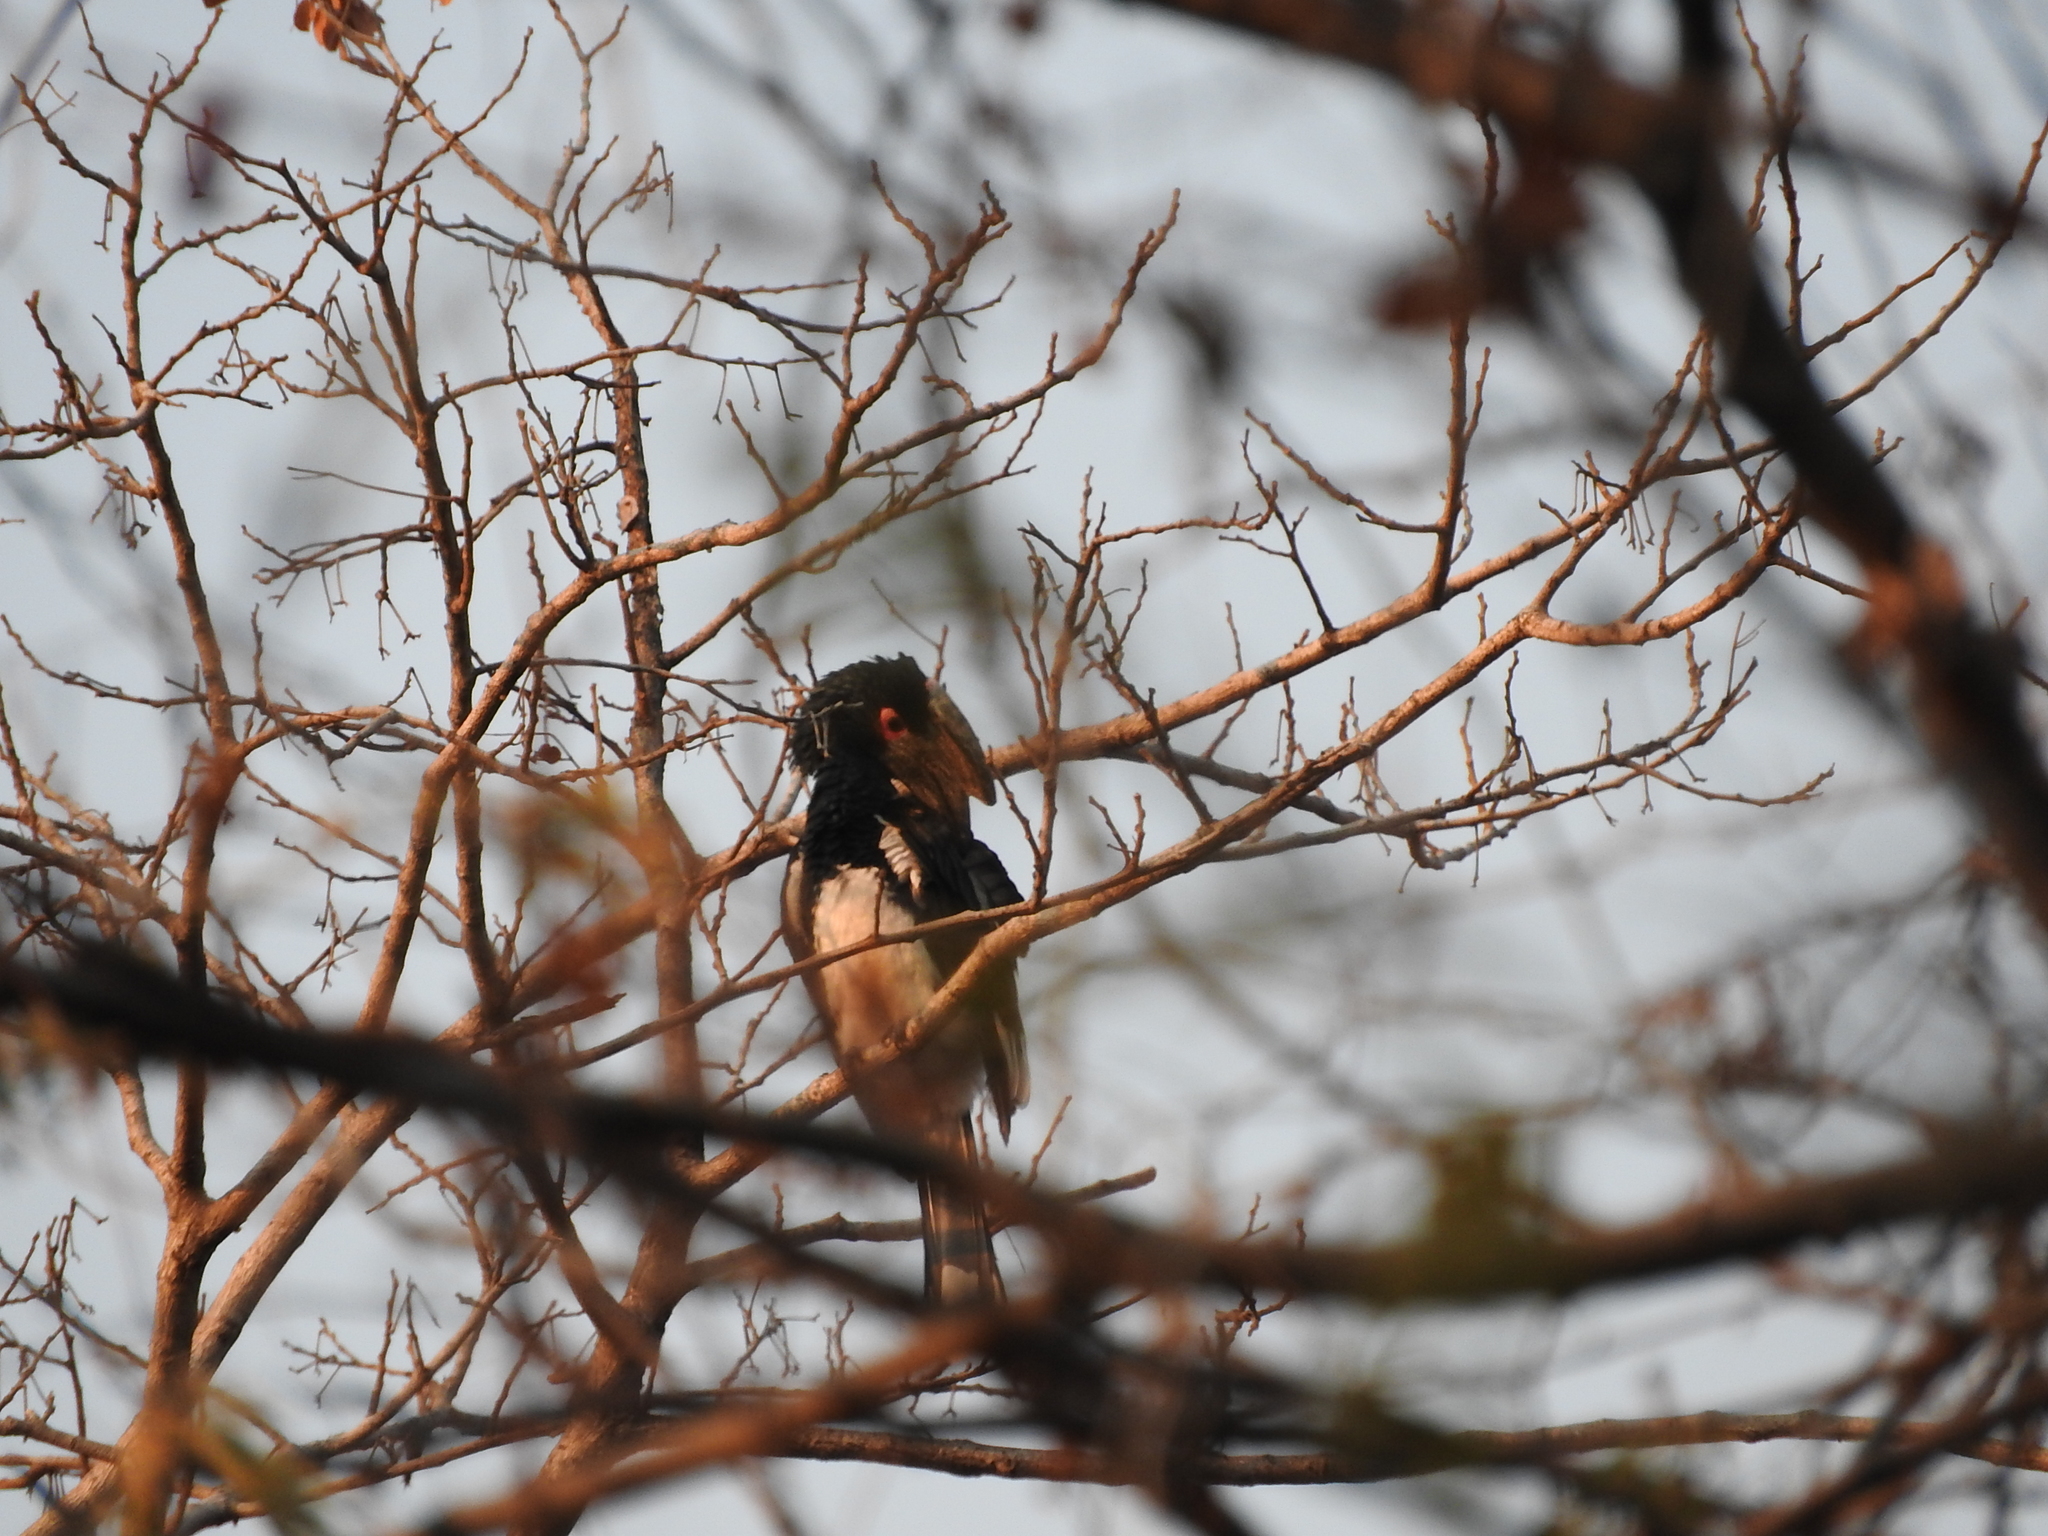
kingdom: Animalia
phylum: Chordata
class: Aves
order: Bucerotiformes
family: Bucerotidae
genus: Bycanistes
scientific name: Bycanistes bucinator
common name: Trumpeter hornbill
